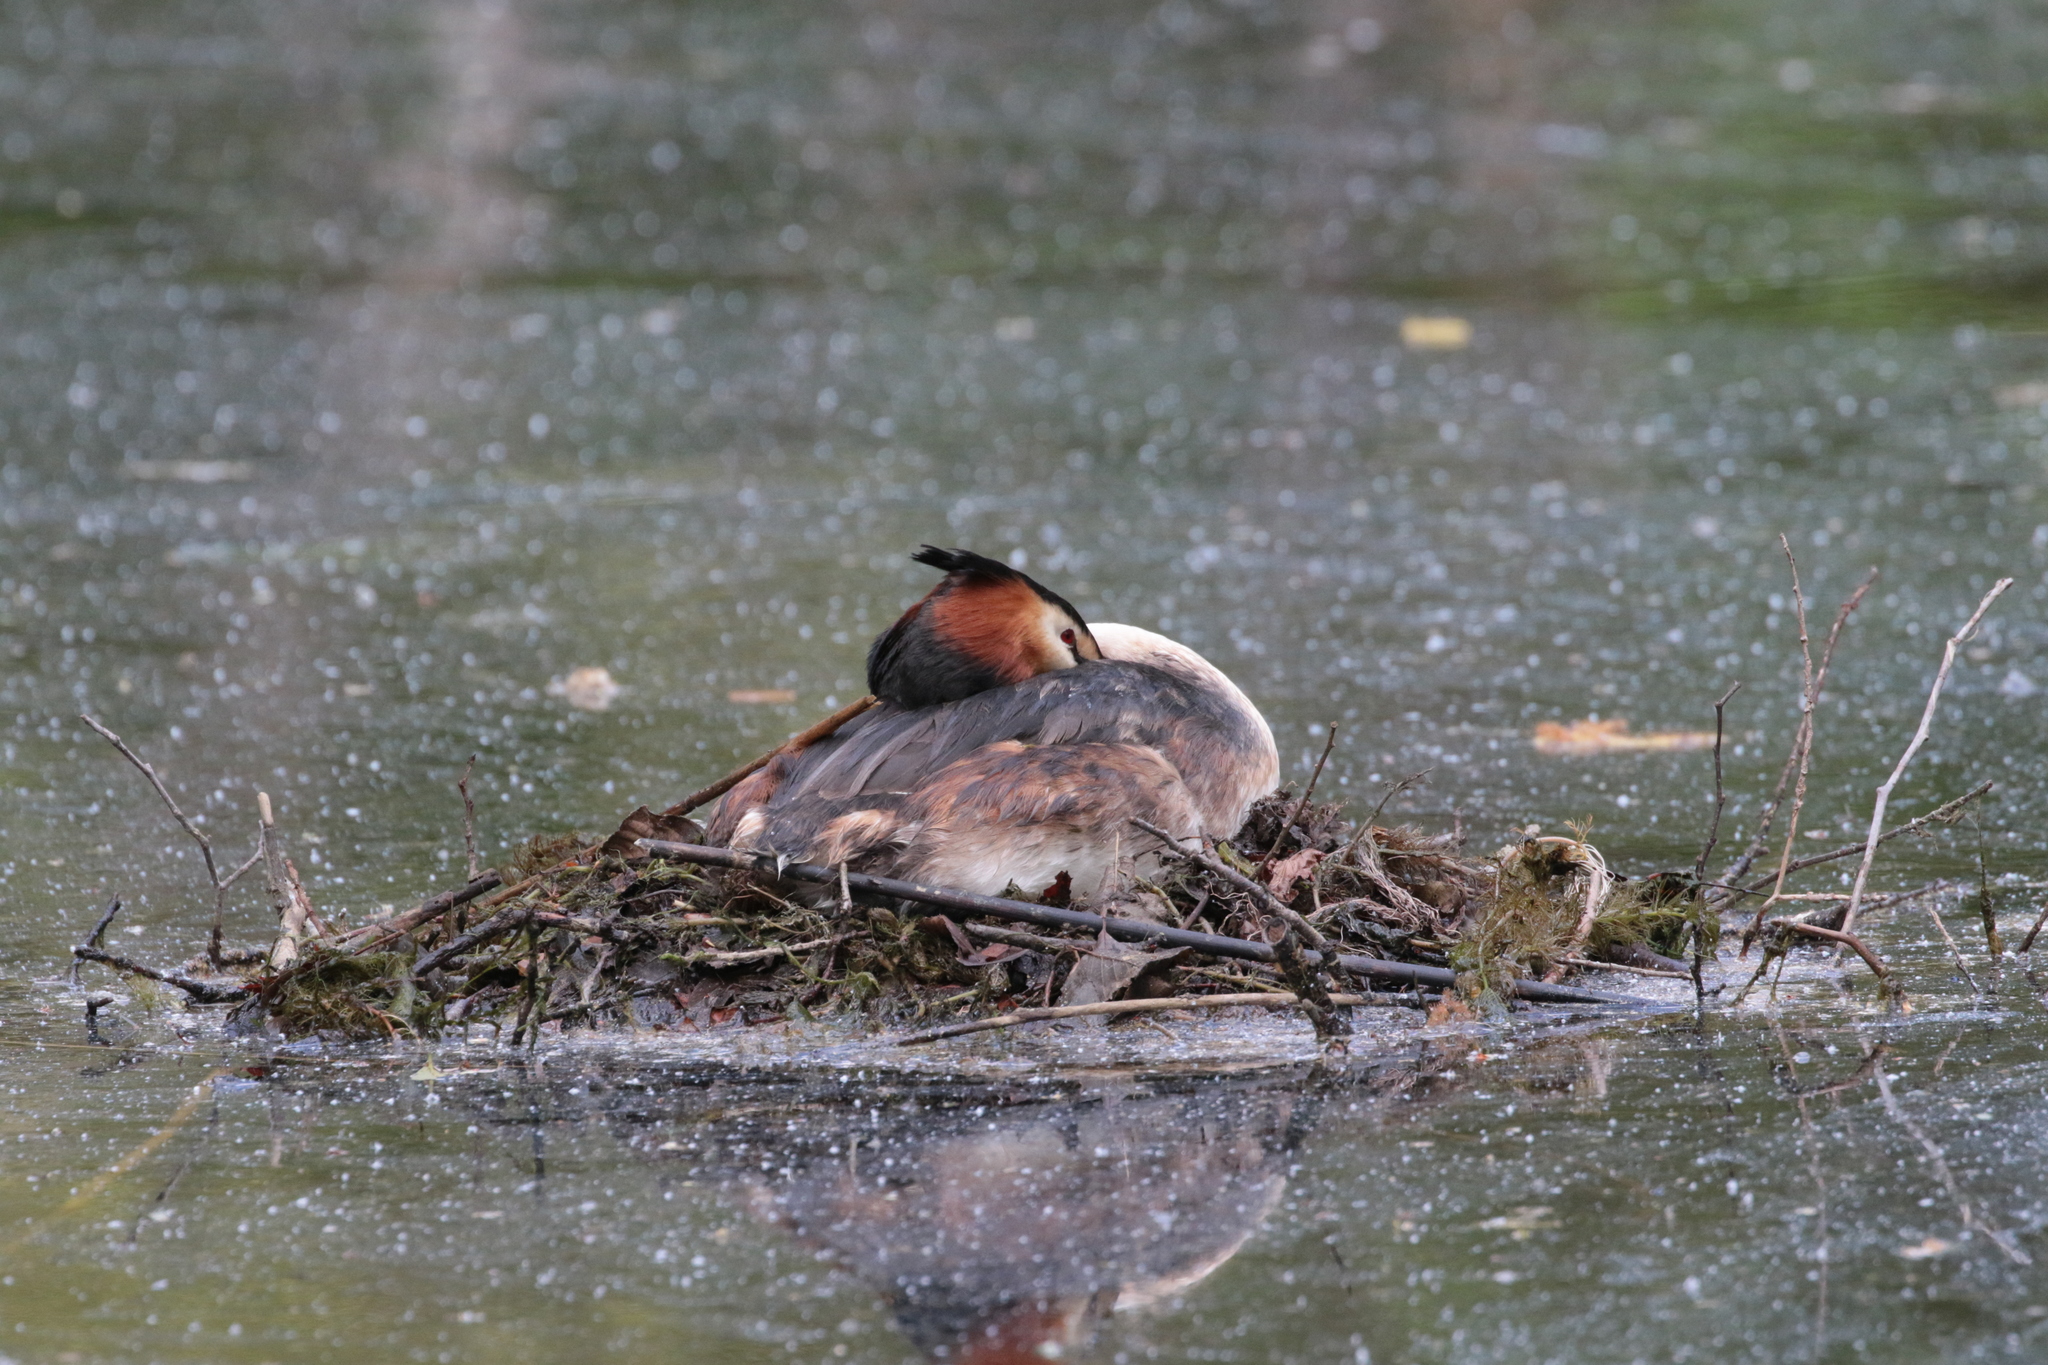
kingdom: Animalia
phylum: Chordata
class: Aves
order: Podicipediformes
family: Podicipedidae
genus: Podiceps
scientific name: Podiceps cristatus
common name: Great crested grebe
